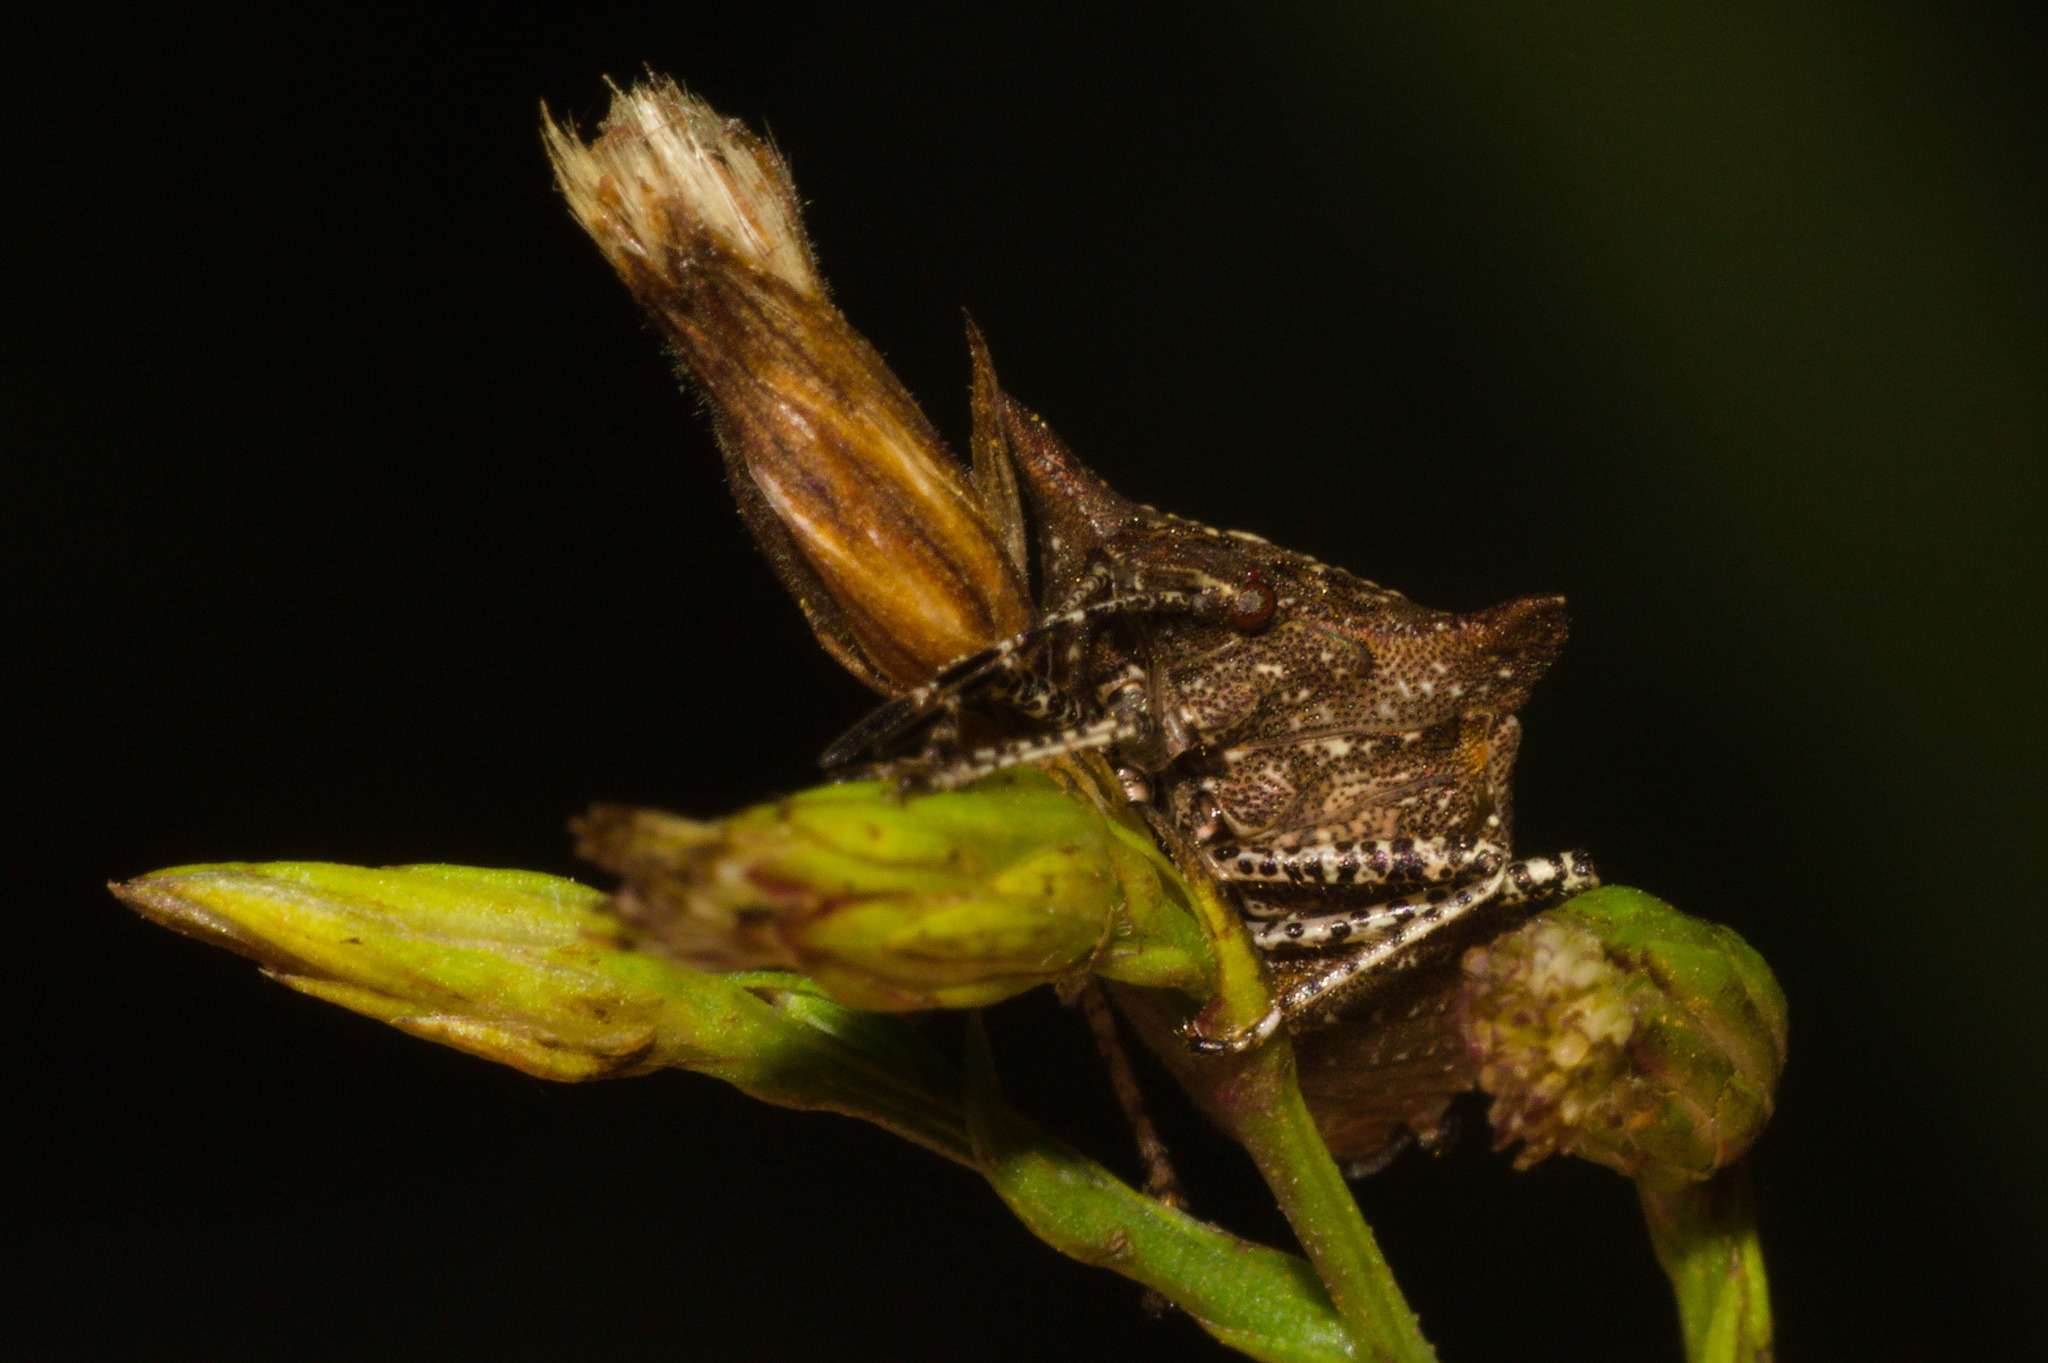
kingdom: Animalia
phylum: Arthropoda
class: Insecta
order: Hemiptera
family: Pentatomidae
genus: Euschistus
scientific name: Euschistus picticornis
